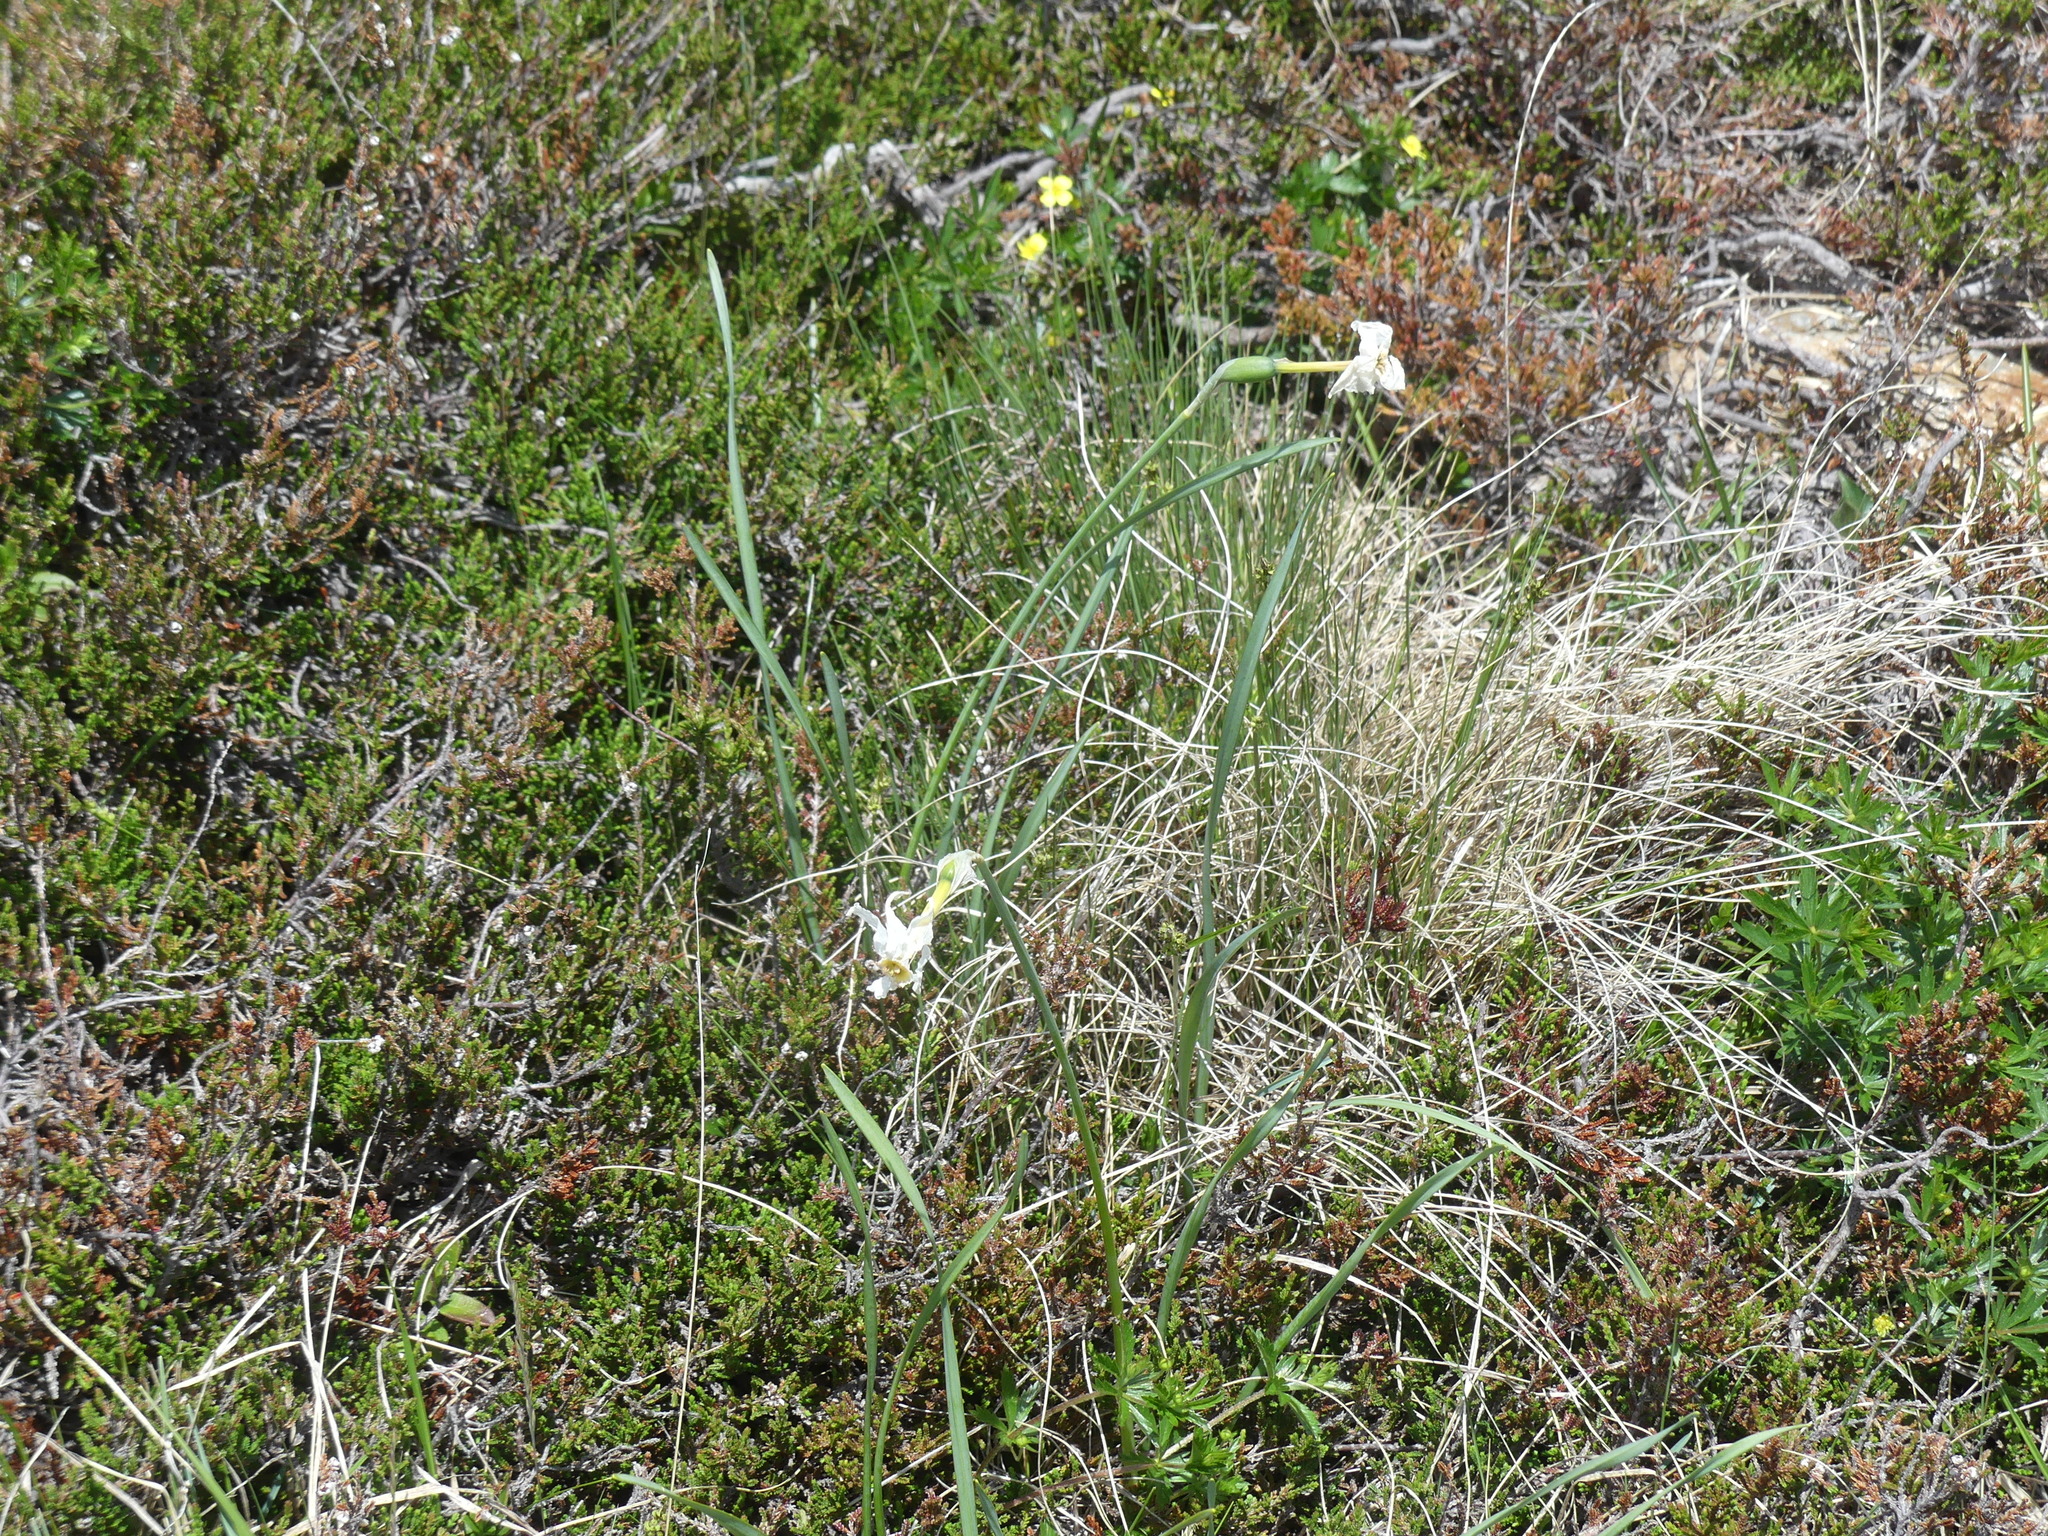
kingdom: Plantae
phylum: Tracheophyta
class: Liliopsida
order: Asparagales
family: Amaryllidaceae
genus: Narcissus
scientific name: Narcissus poeticus
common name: Pheasant's-eye daffodil
